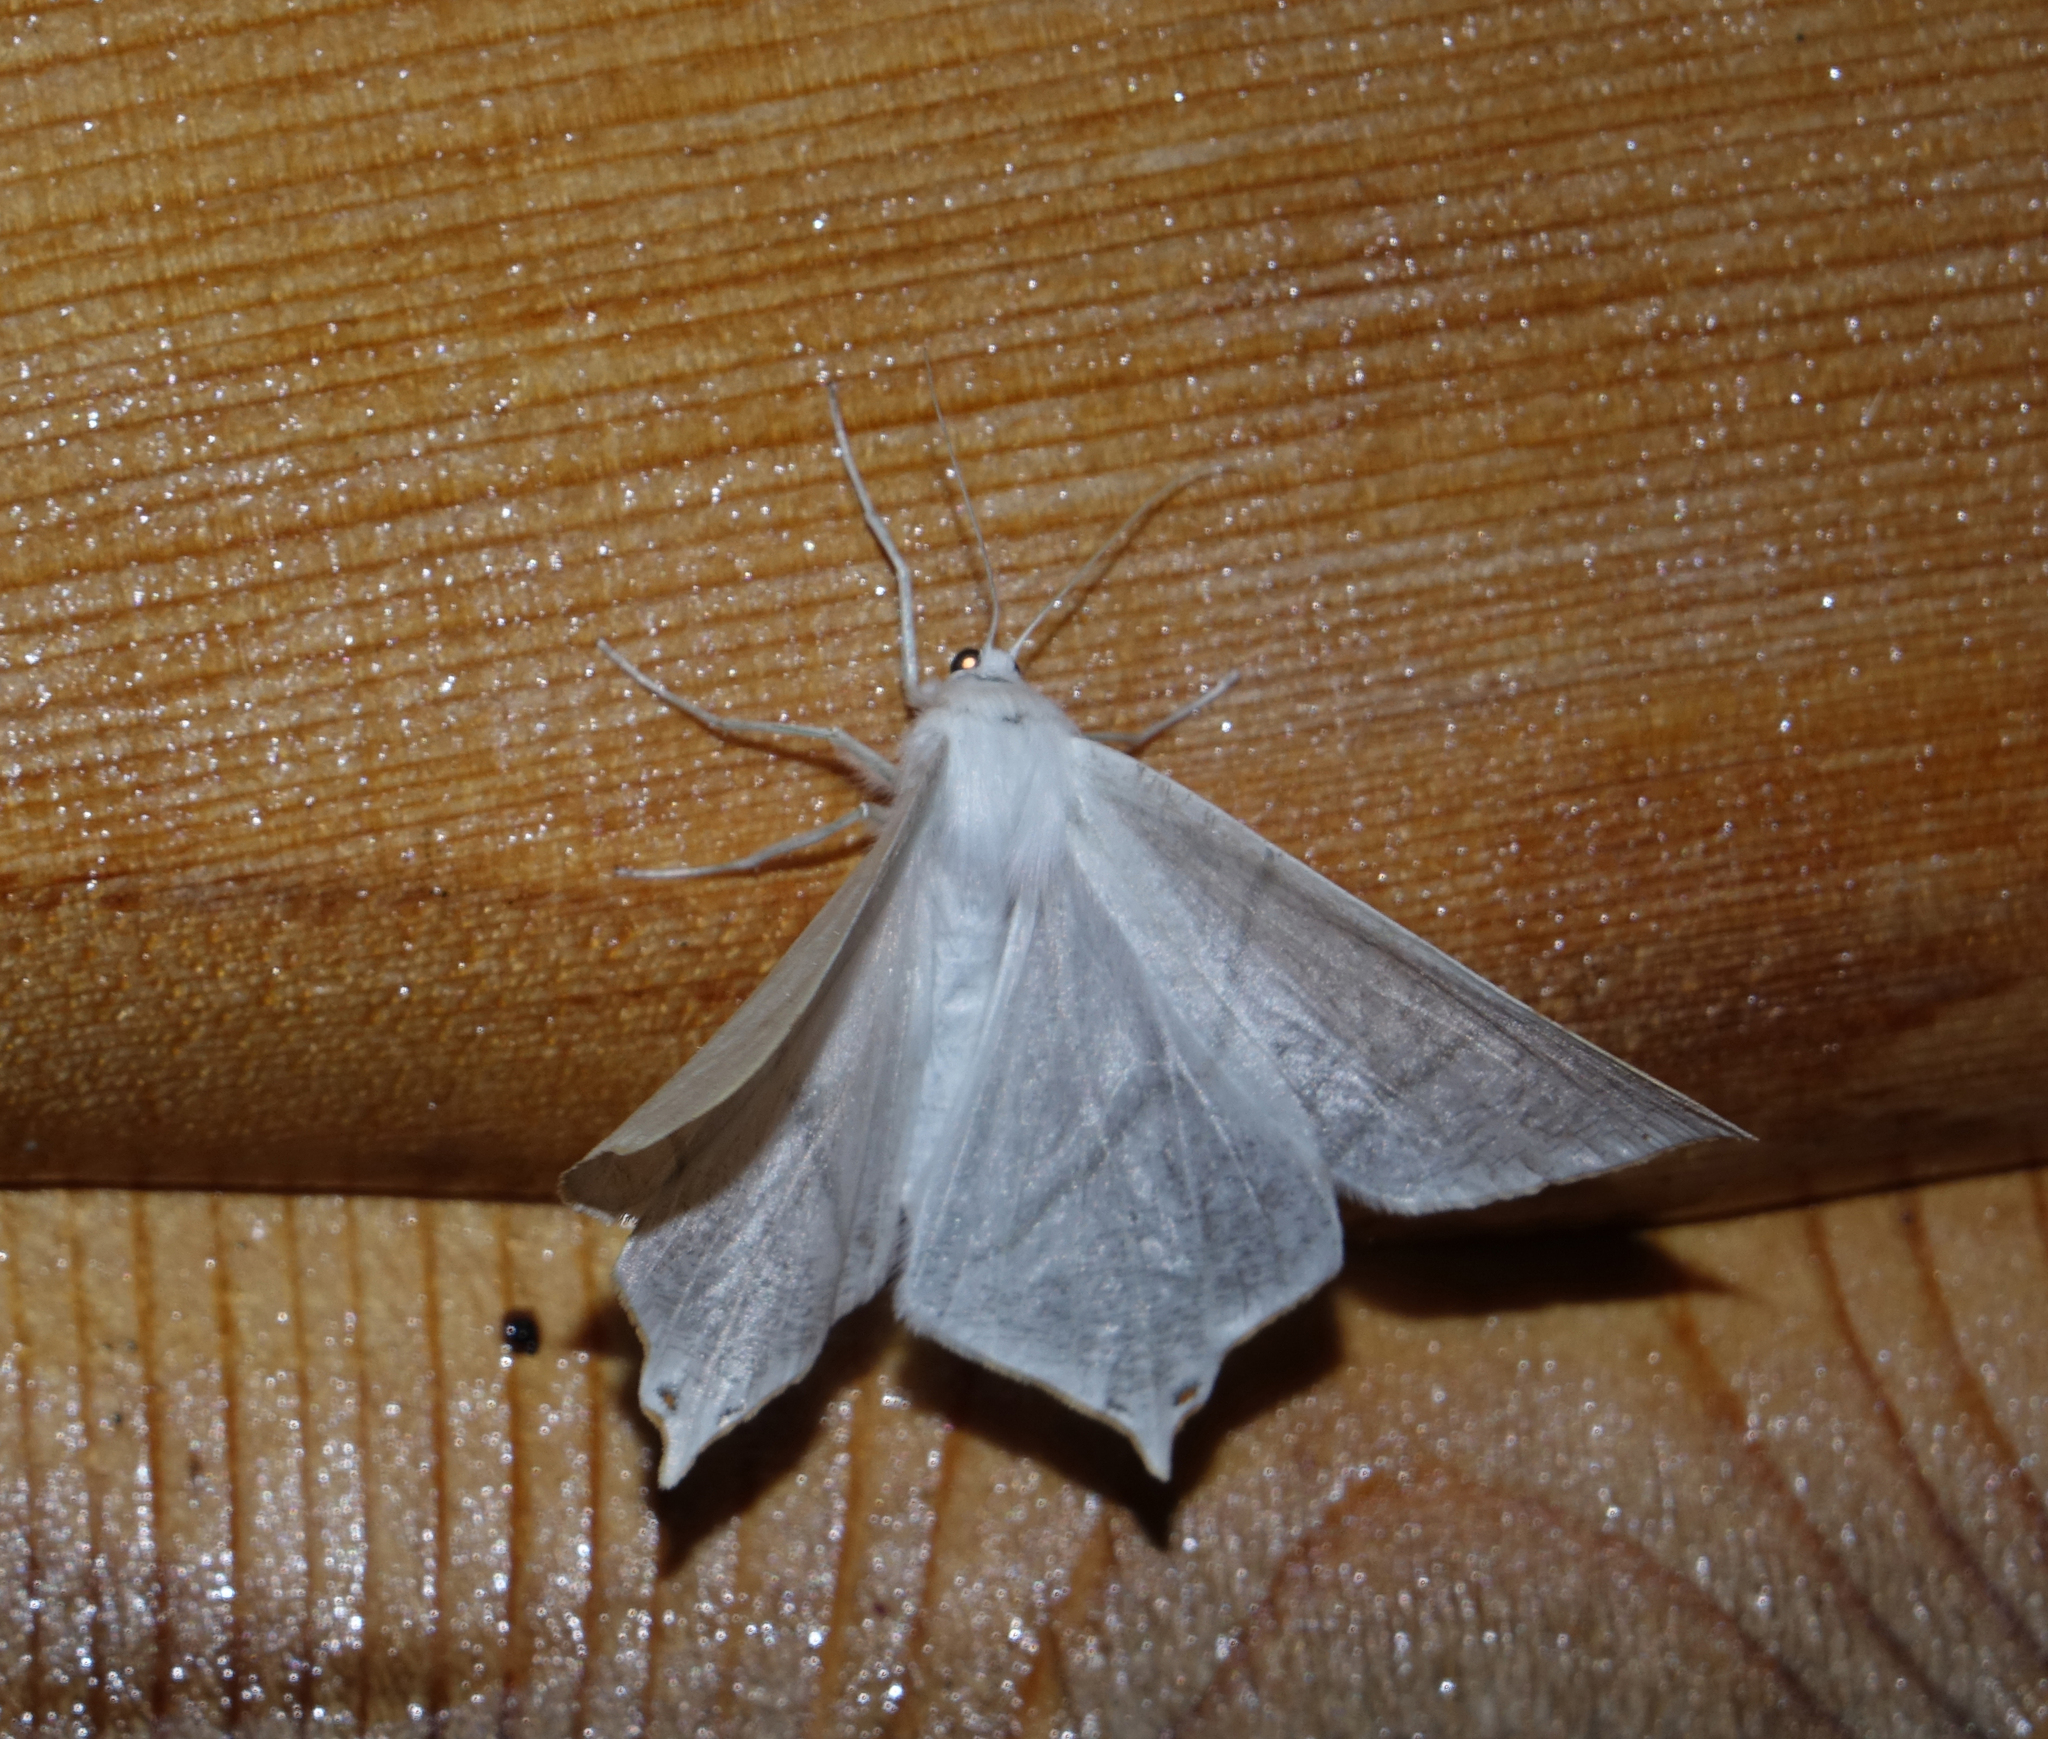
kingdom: Animalia
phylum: Arthropoda
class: Insecta
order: Lepidoptera
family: Geometridae
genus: Ourapteryx
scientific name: Ourapteryx
